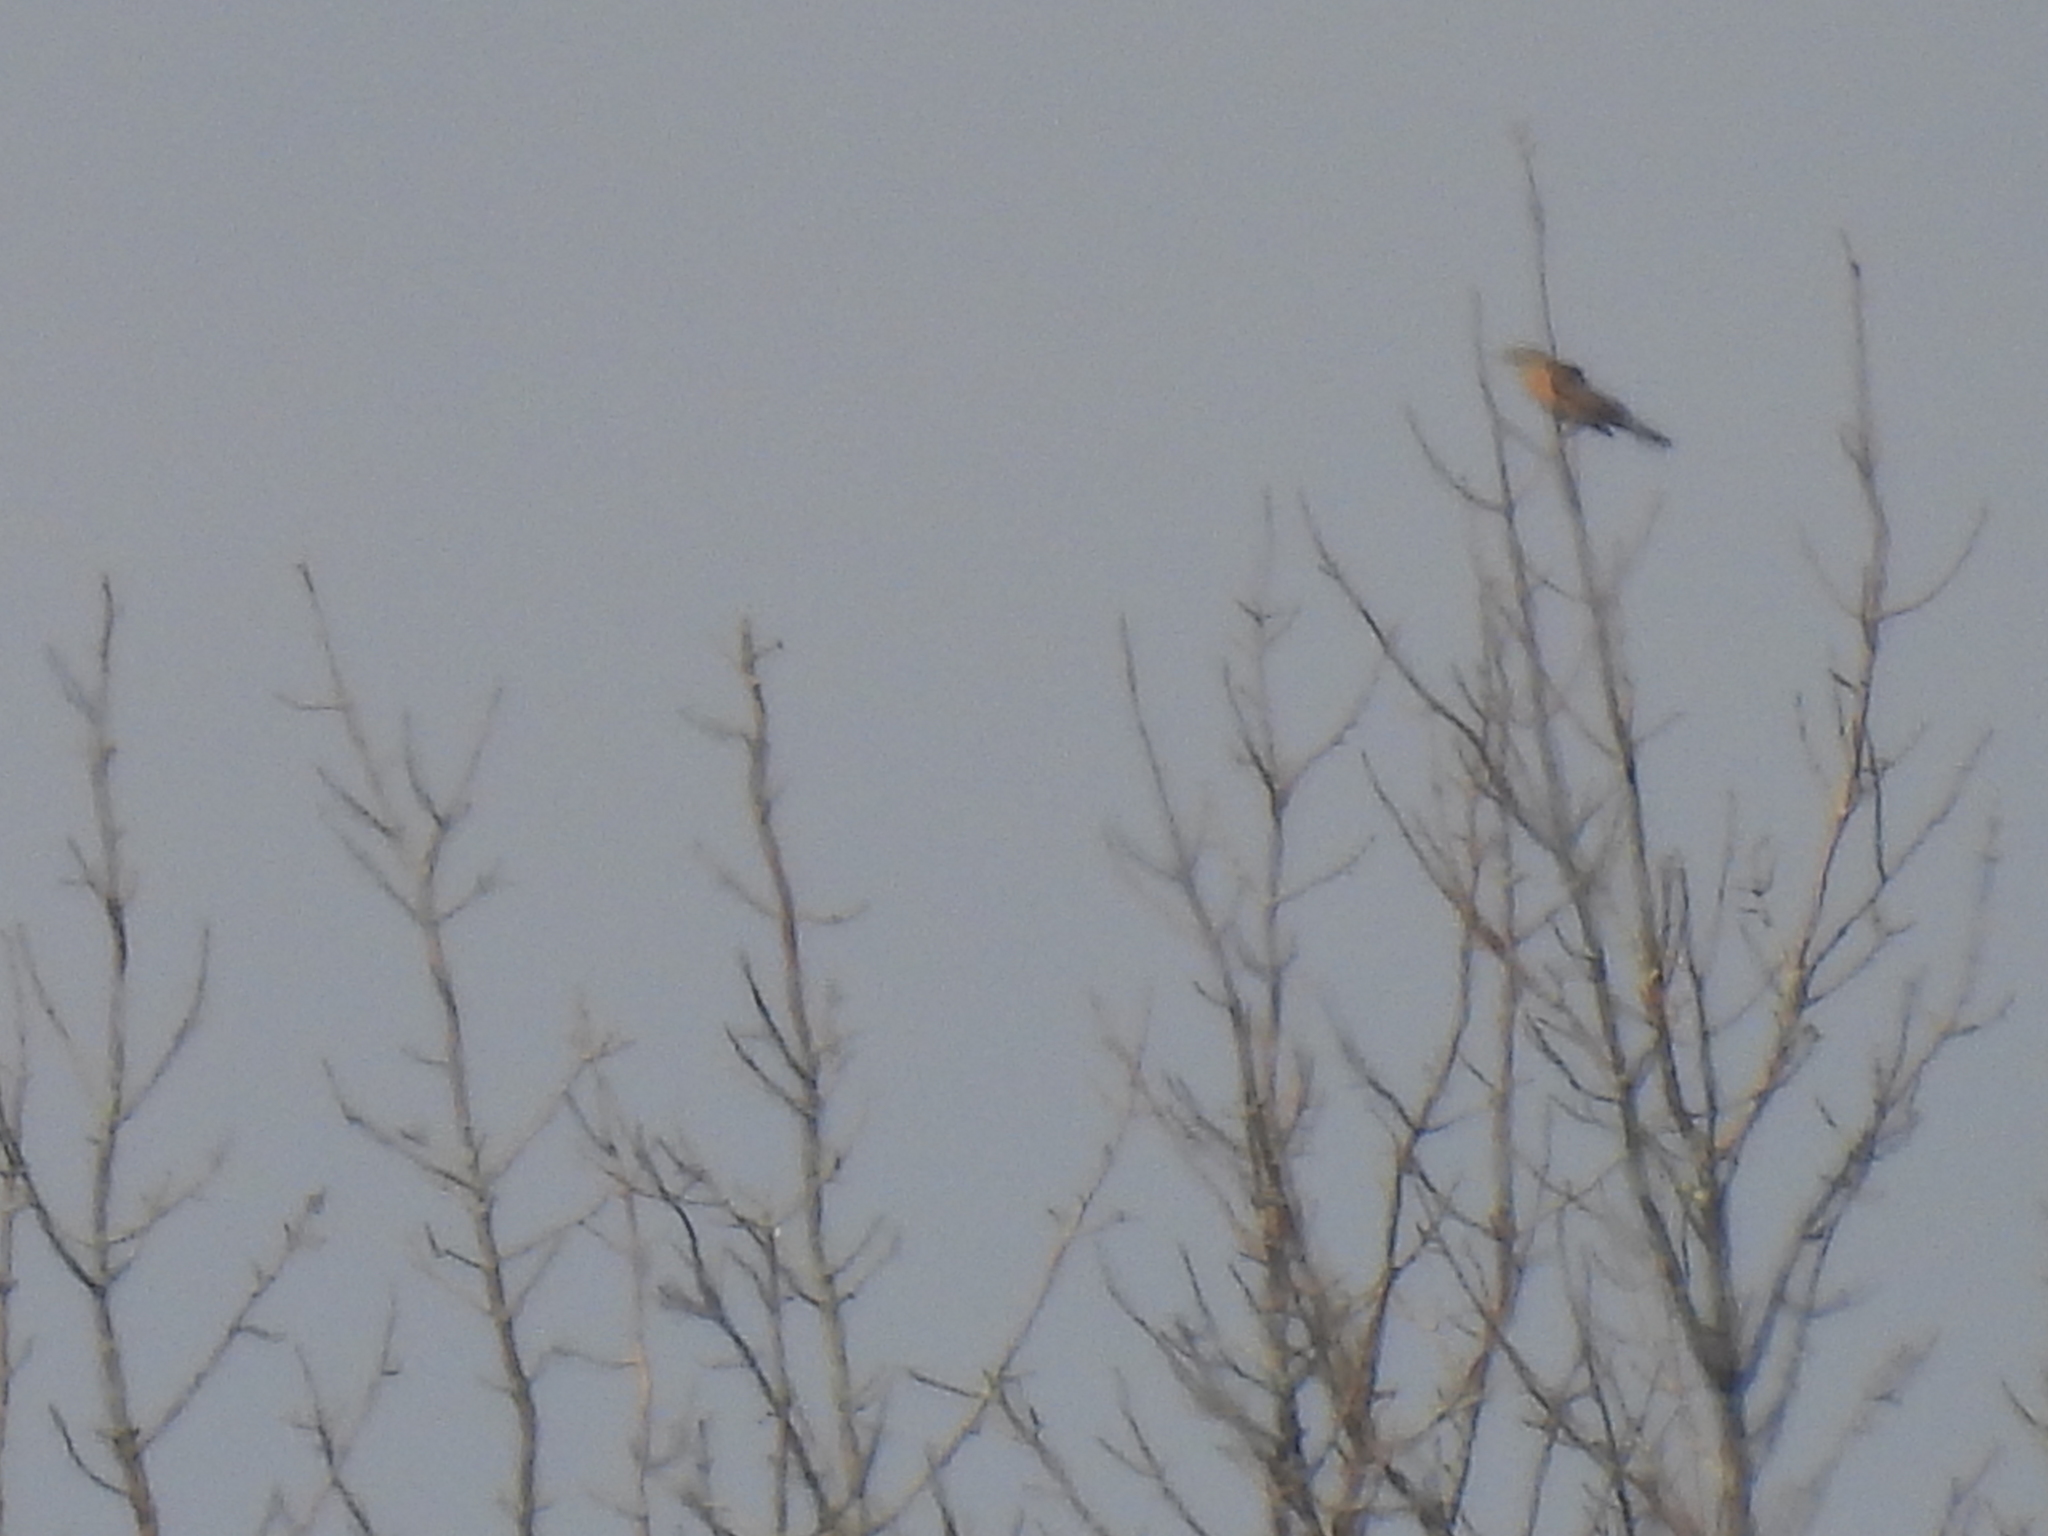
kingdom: Animalia
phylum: Chordata
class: Aves
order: Passeriformes
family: Turdidae
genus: Turdus
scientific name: Turdus migratorius
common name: American robin
